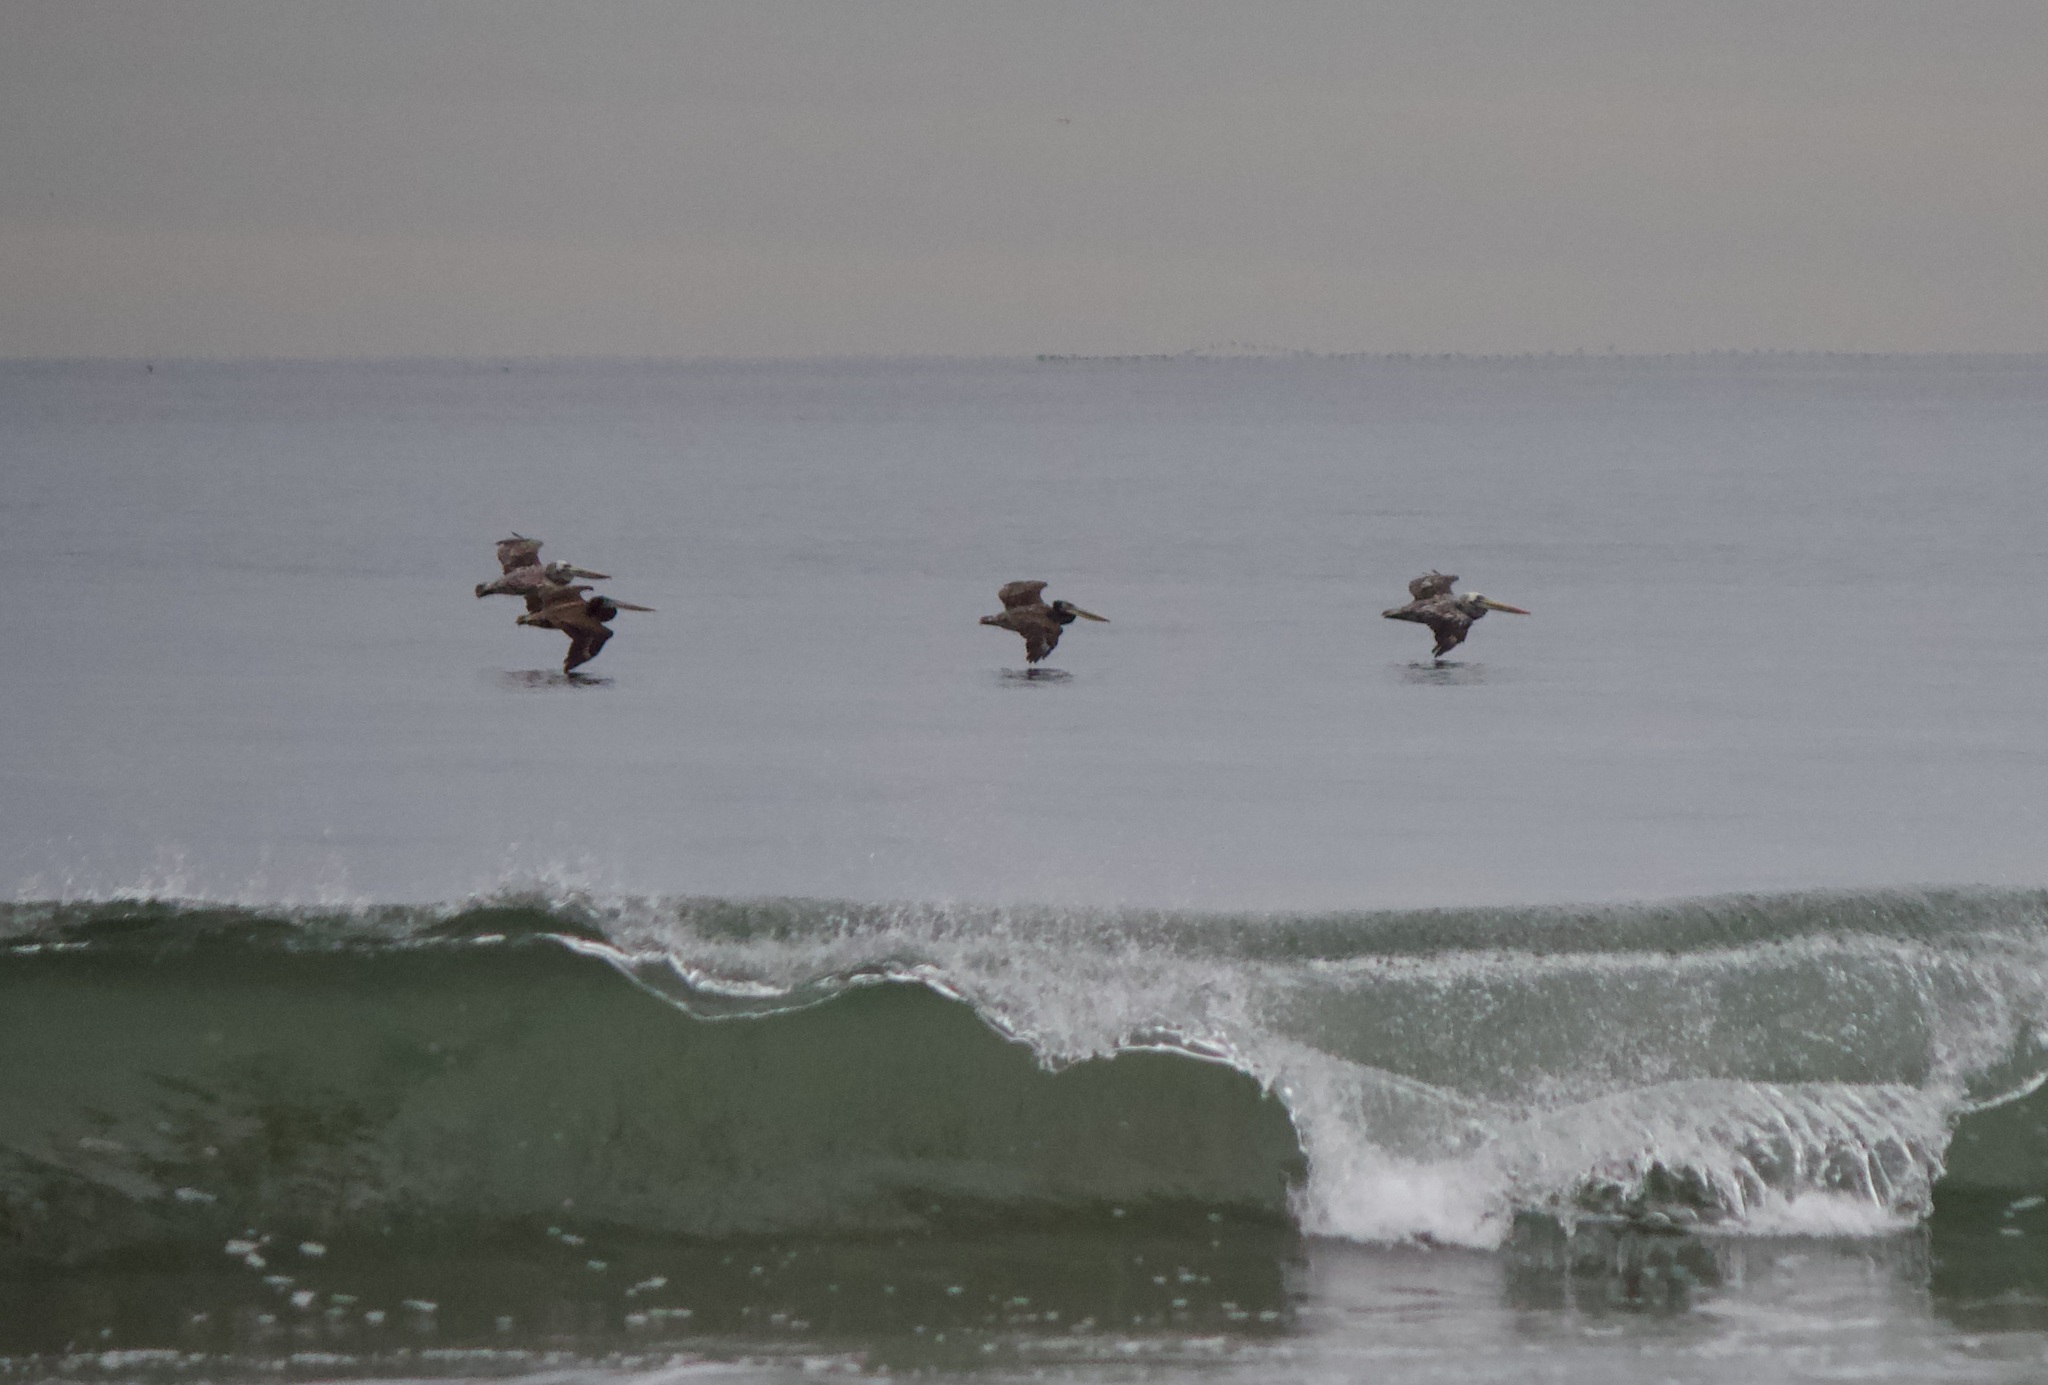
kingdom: Animalia
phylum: Chordata
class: Aves
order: Pelecaniformes
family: Pelecanidae
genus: Pelecanus
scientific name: Pelecanus thagus
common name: Peruvian pelican
